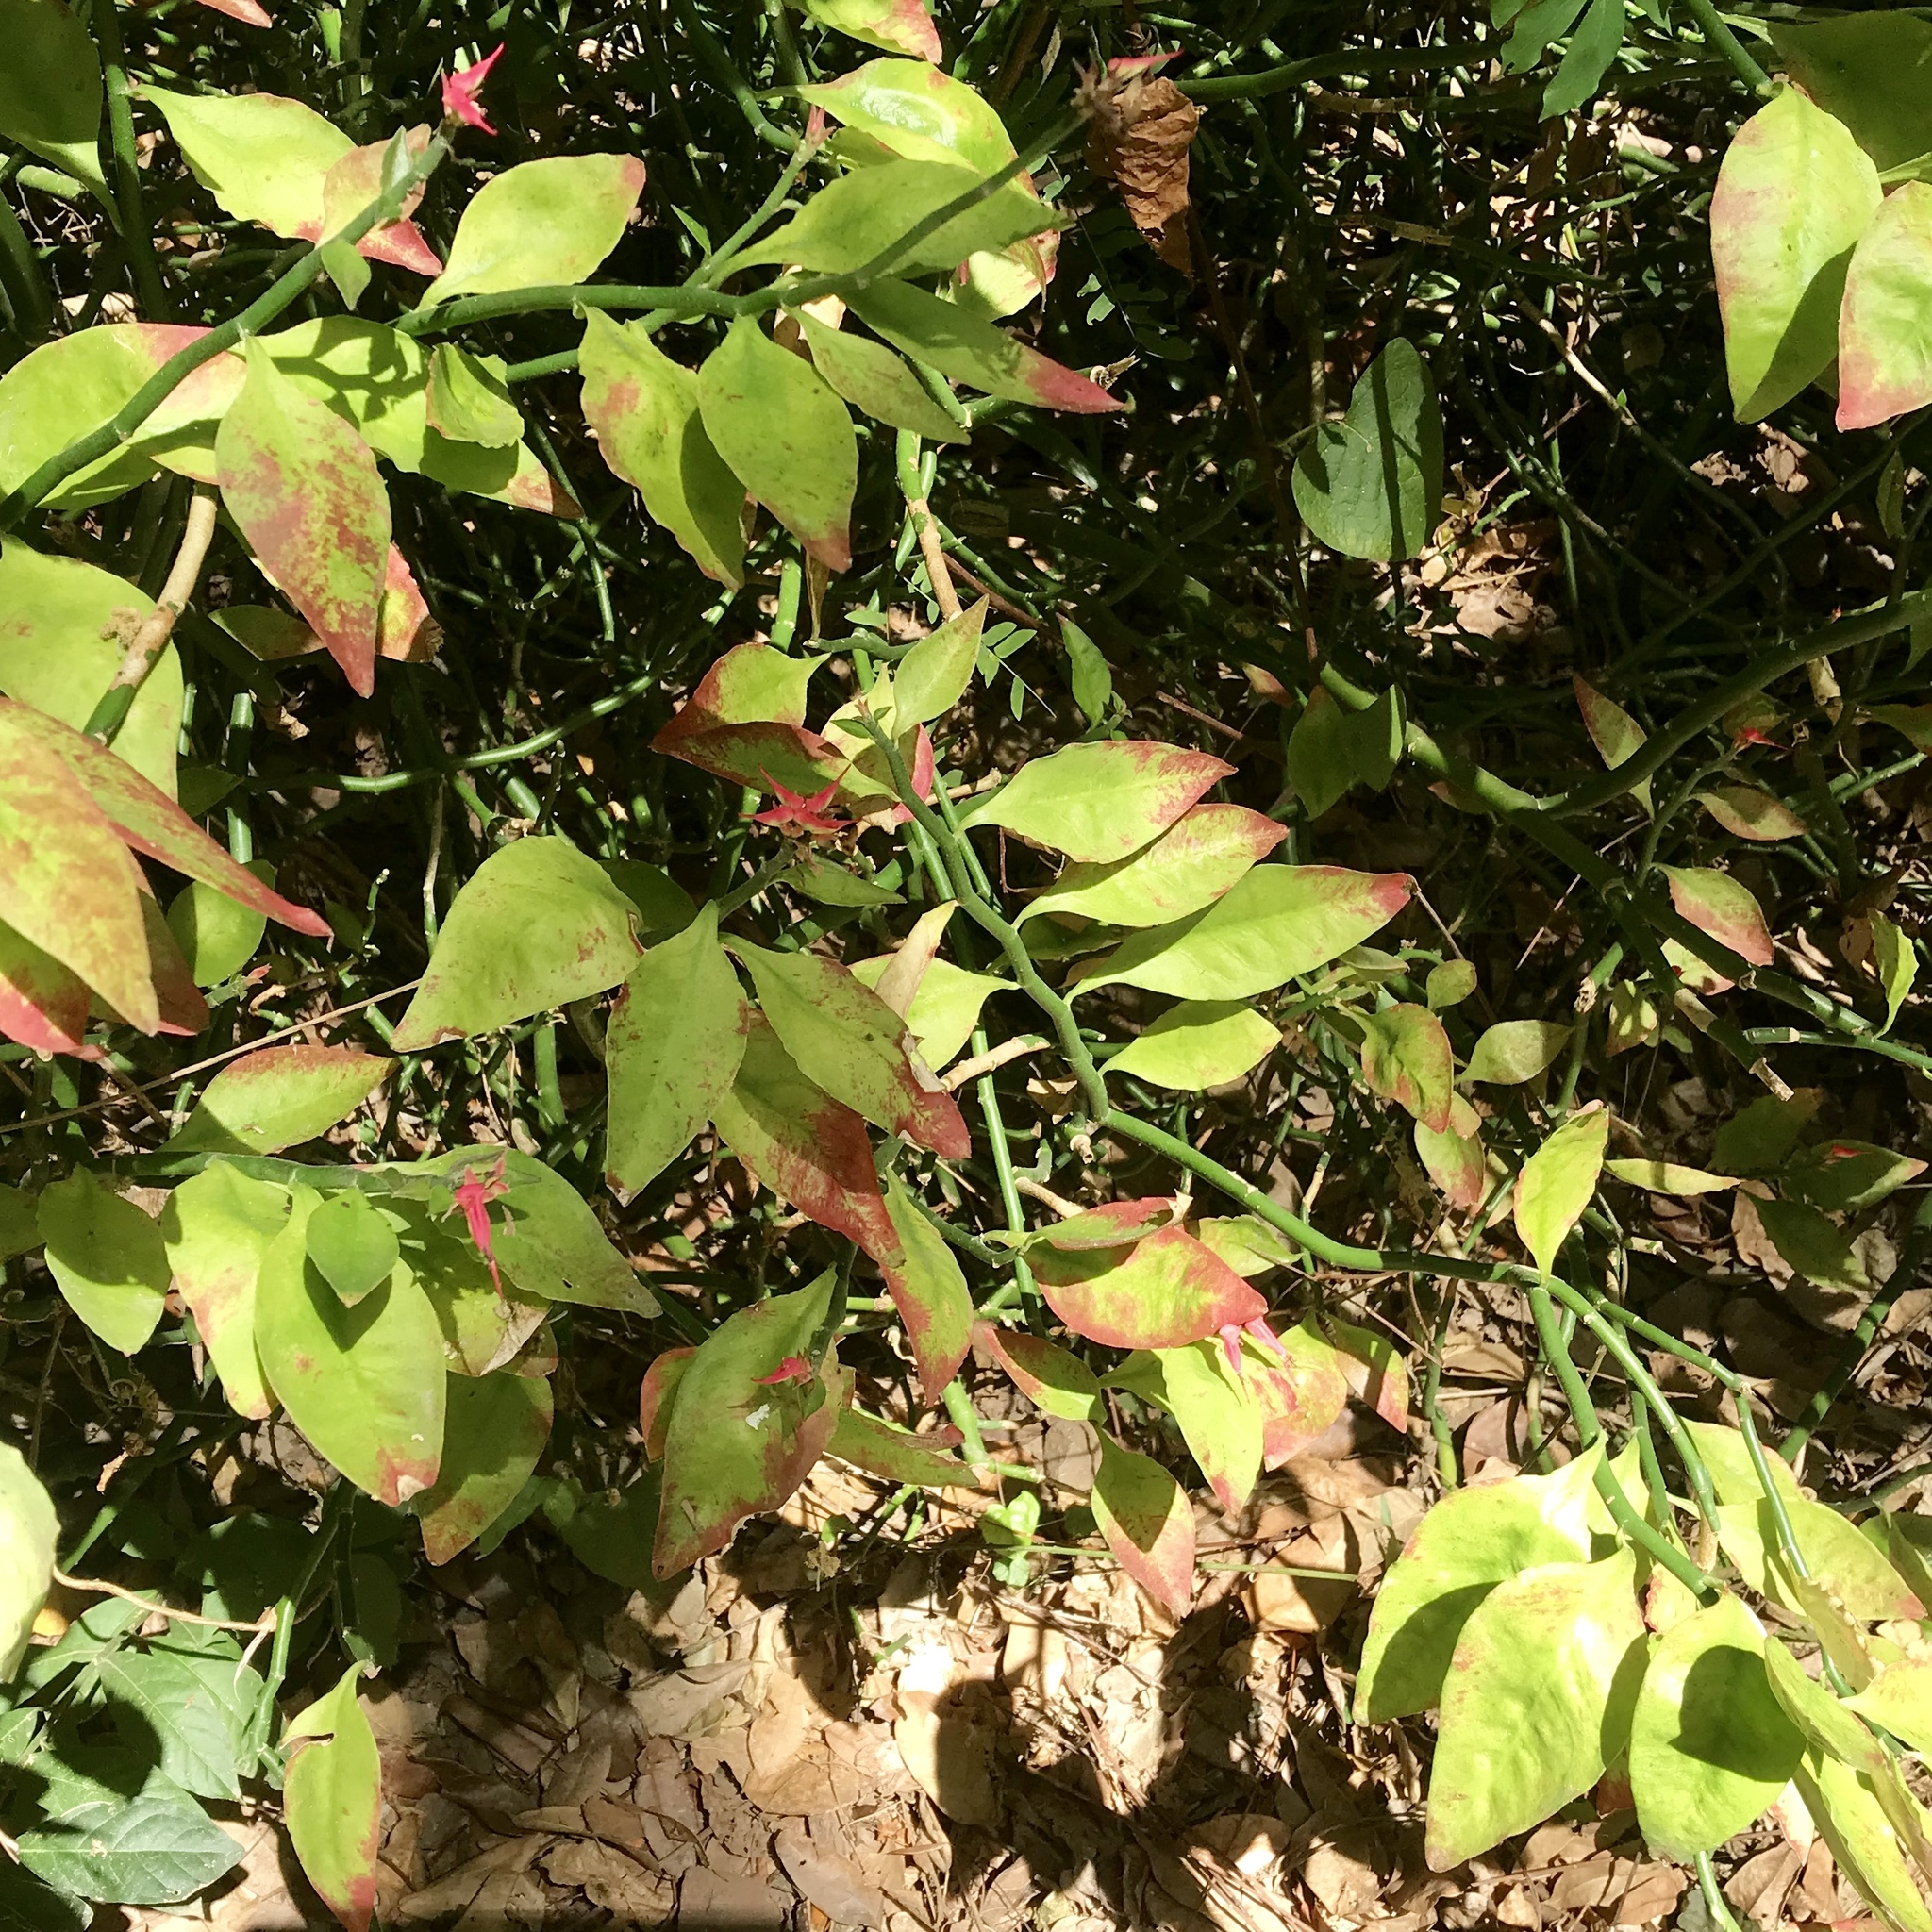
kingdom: Plantae
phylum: Tracheophyta
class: Magnoliopsida
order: Malpighiales
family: Euphorbiaceae
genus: Euphorbia
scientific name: Euphorbia tithymaloides
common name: Slipperplant
